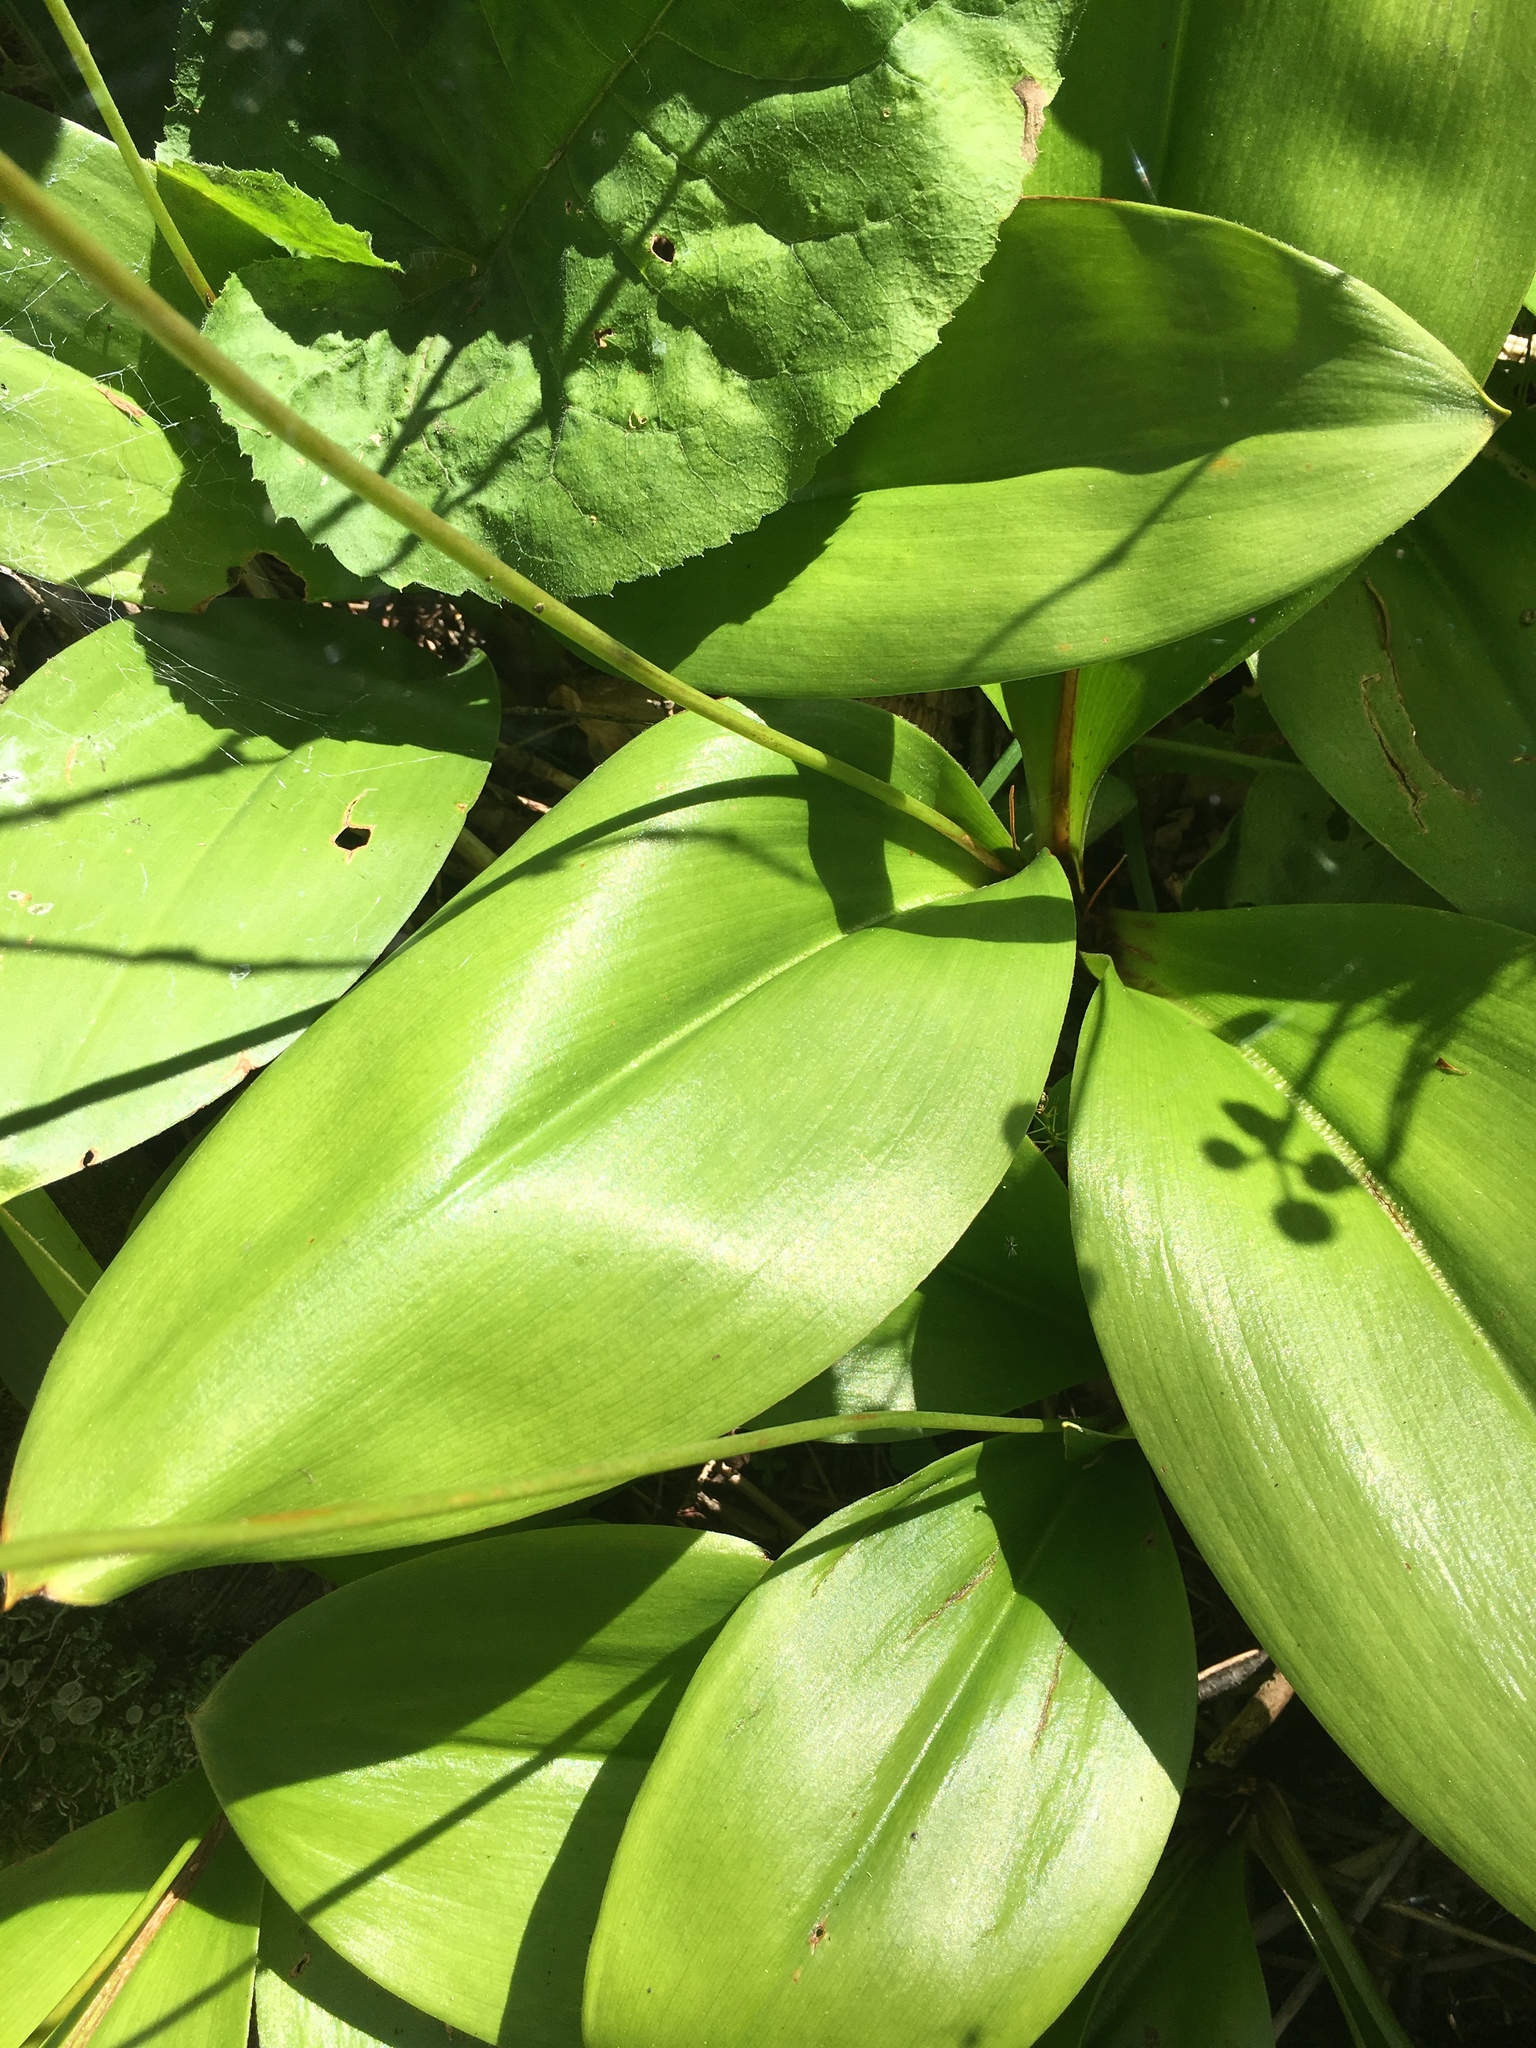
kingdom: Plantae
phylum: Tracheophyta
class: Liliopsida
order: Liliales
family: Liliaceae
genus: Clintonia
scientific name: Clintonia borealis
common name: Yellow clintonia
